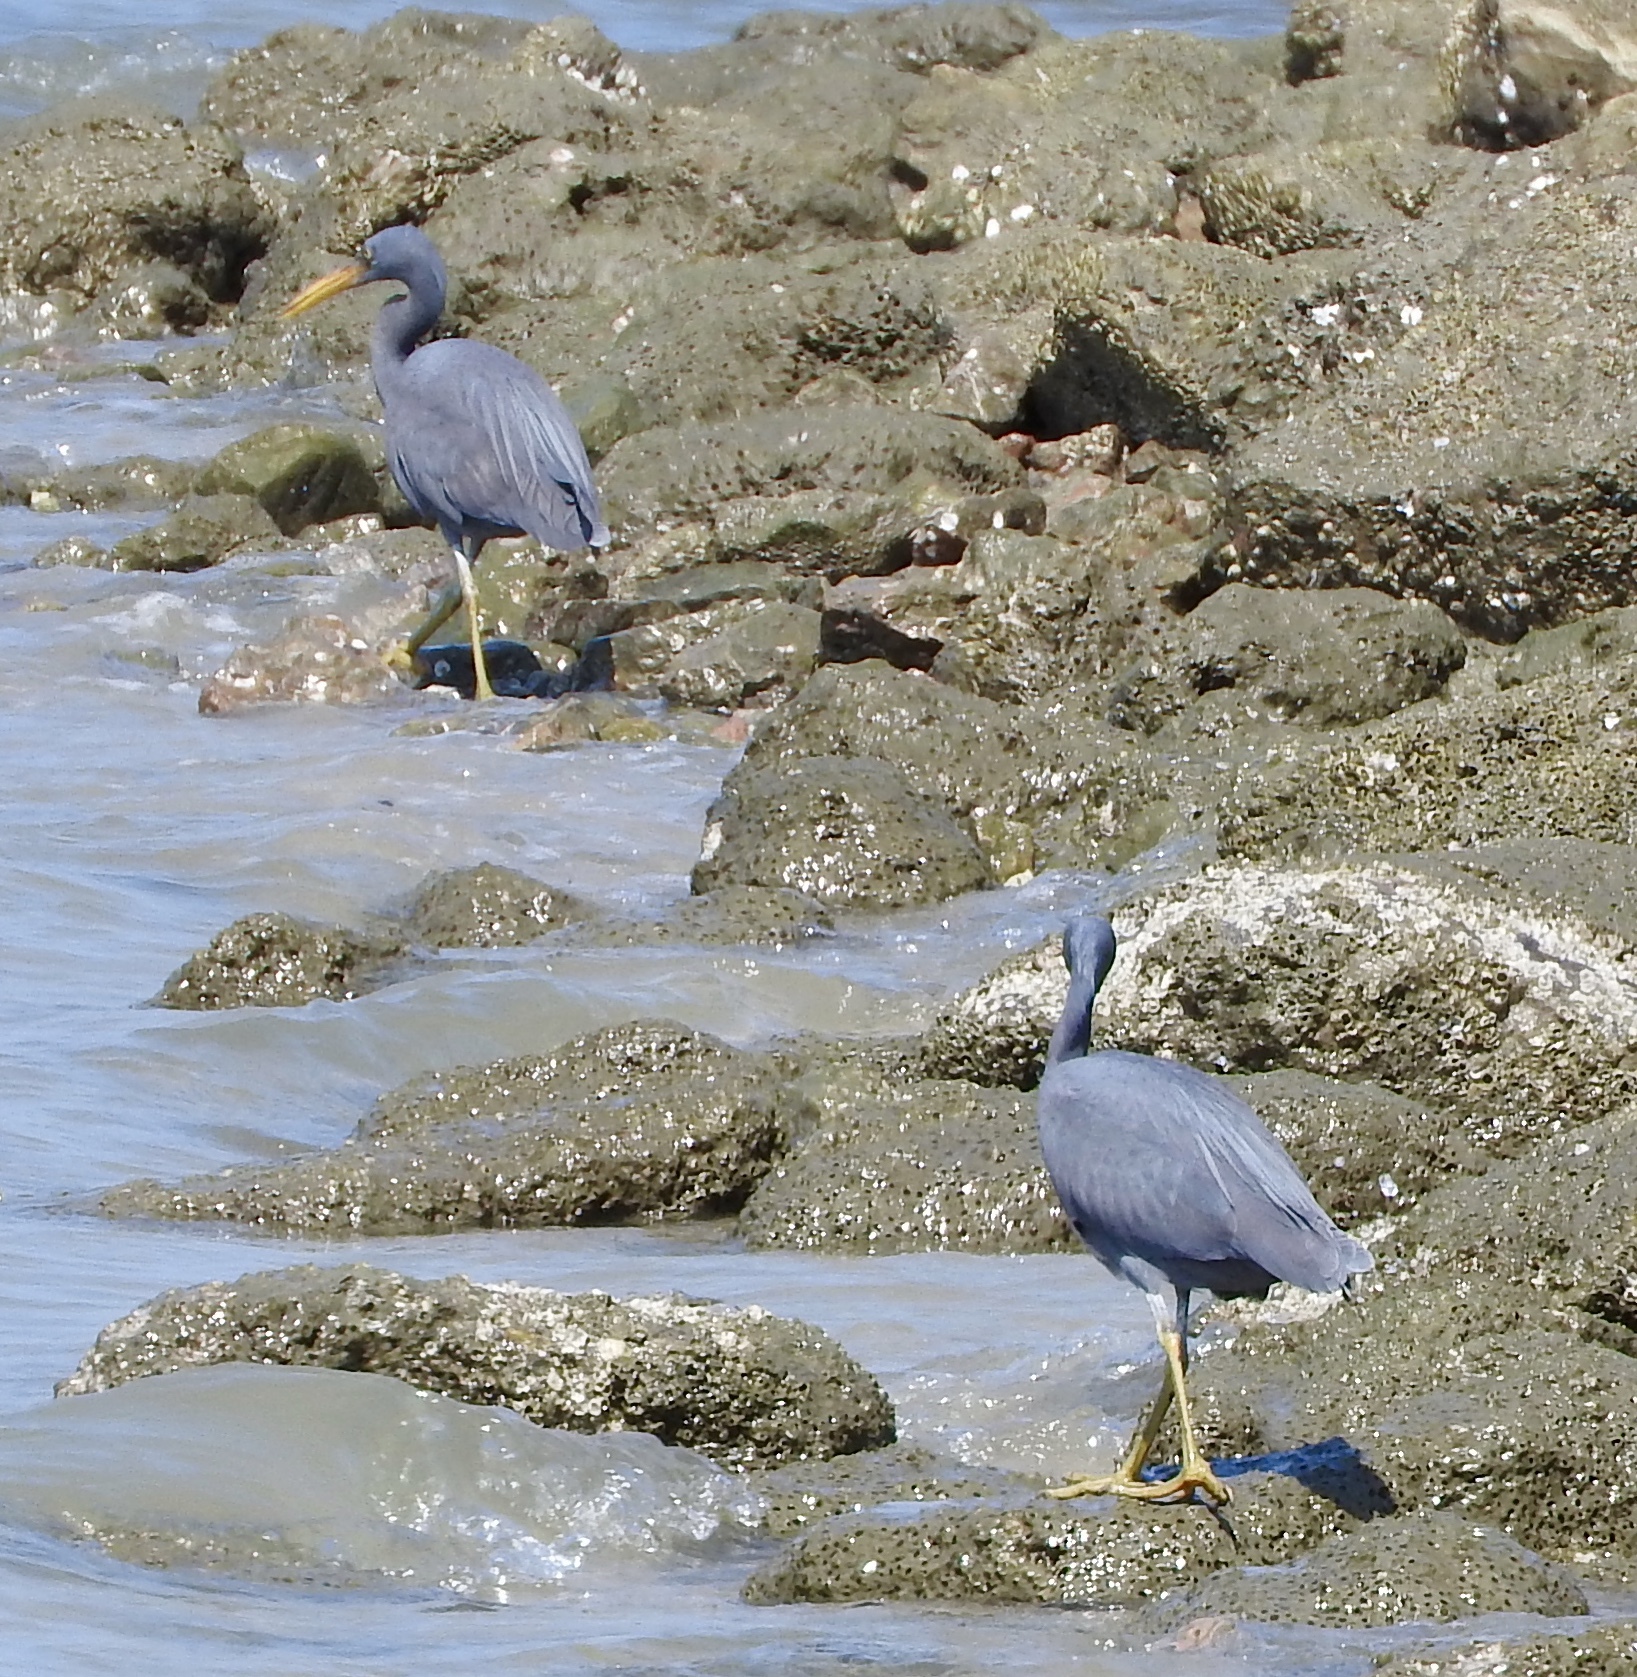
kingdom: Animalia
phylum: Chordata
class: Aves
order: Pelecaniformes
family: Ardeidae
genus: Egretta
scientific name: Egretta sacra
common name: Pacific reef heron
